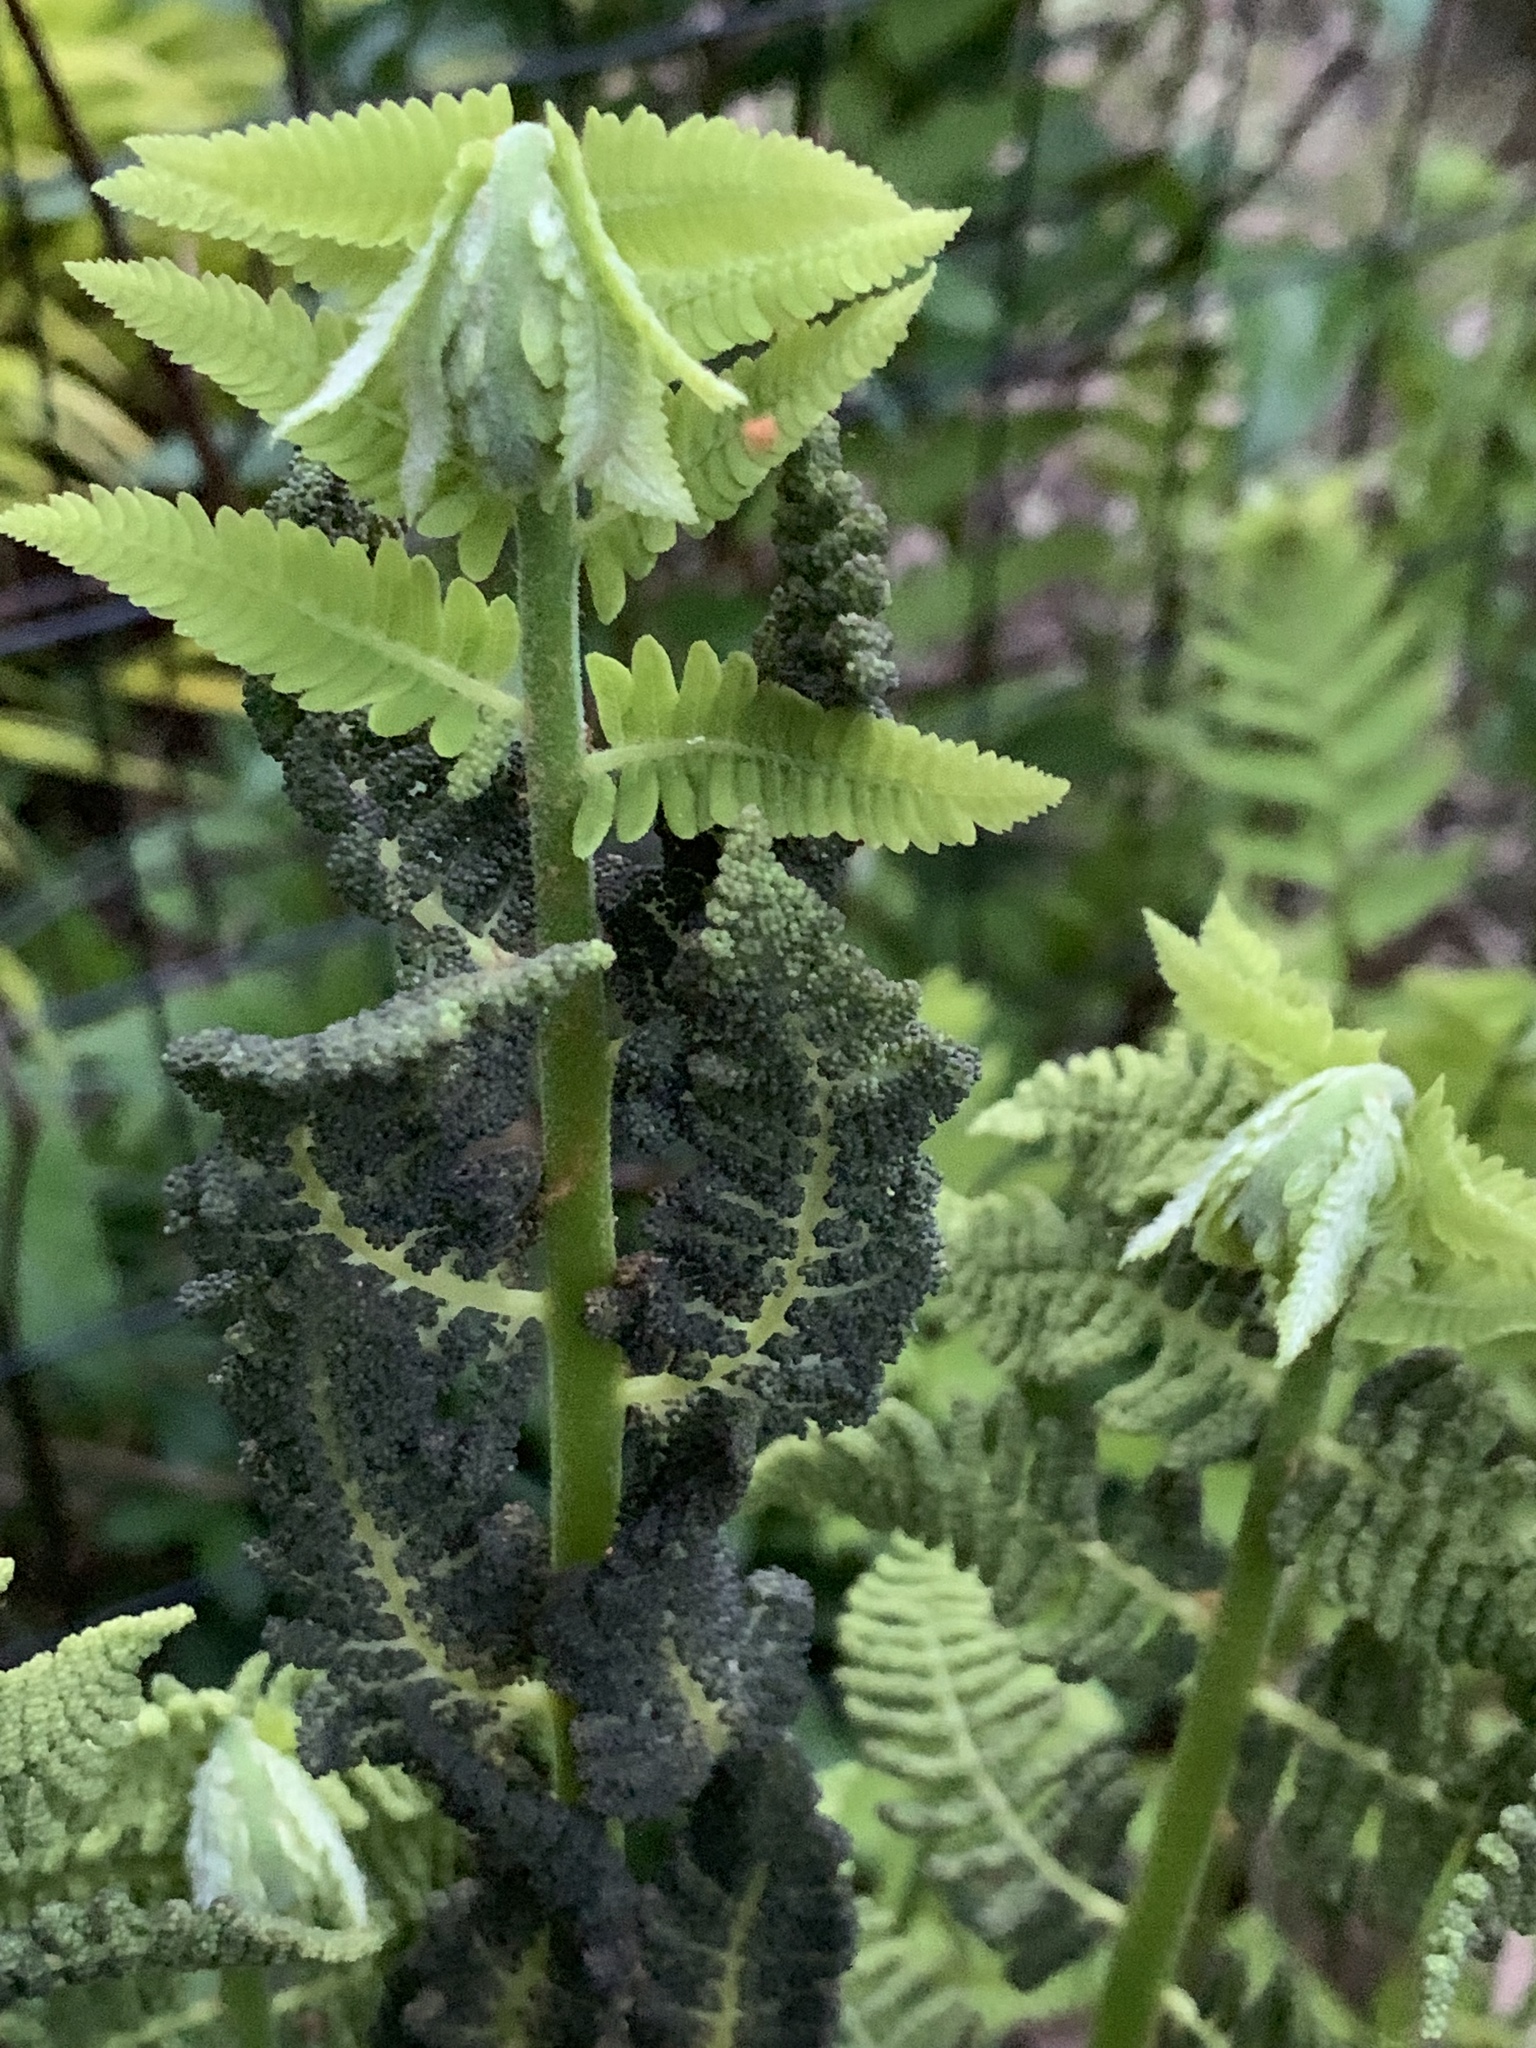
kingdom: Plantae
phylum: Tracheophyta
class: Polypodiopsida
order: Osmundales
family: Osmundaceae
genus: Claytosmunda
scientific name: Claytosmunda claytoniana
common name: Clayton's fern
